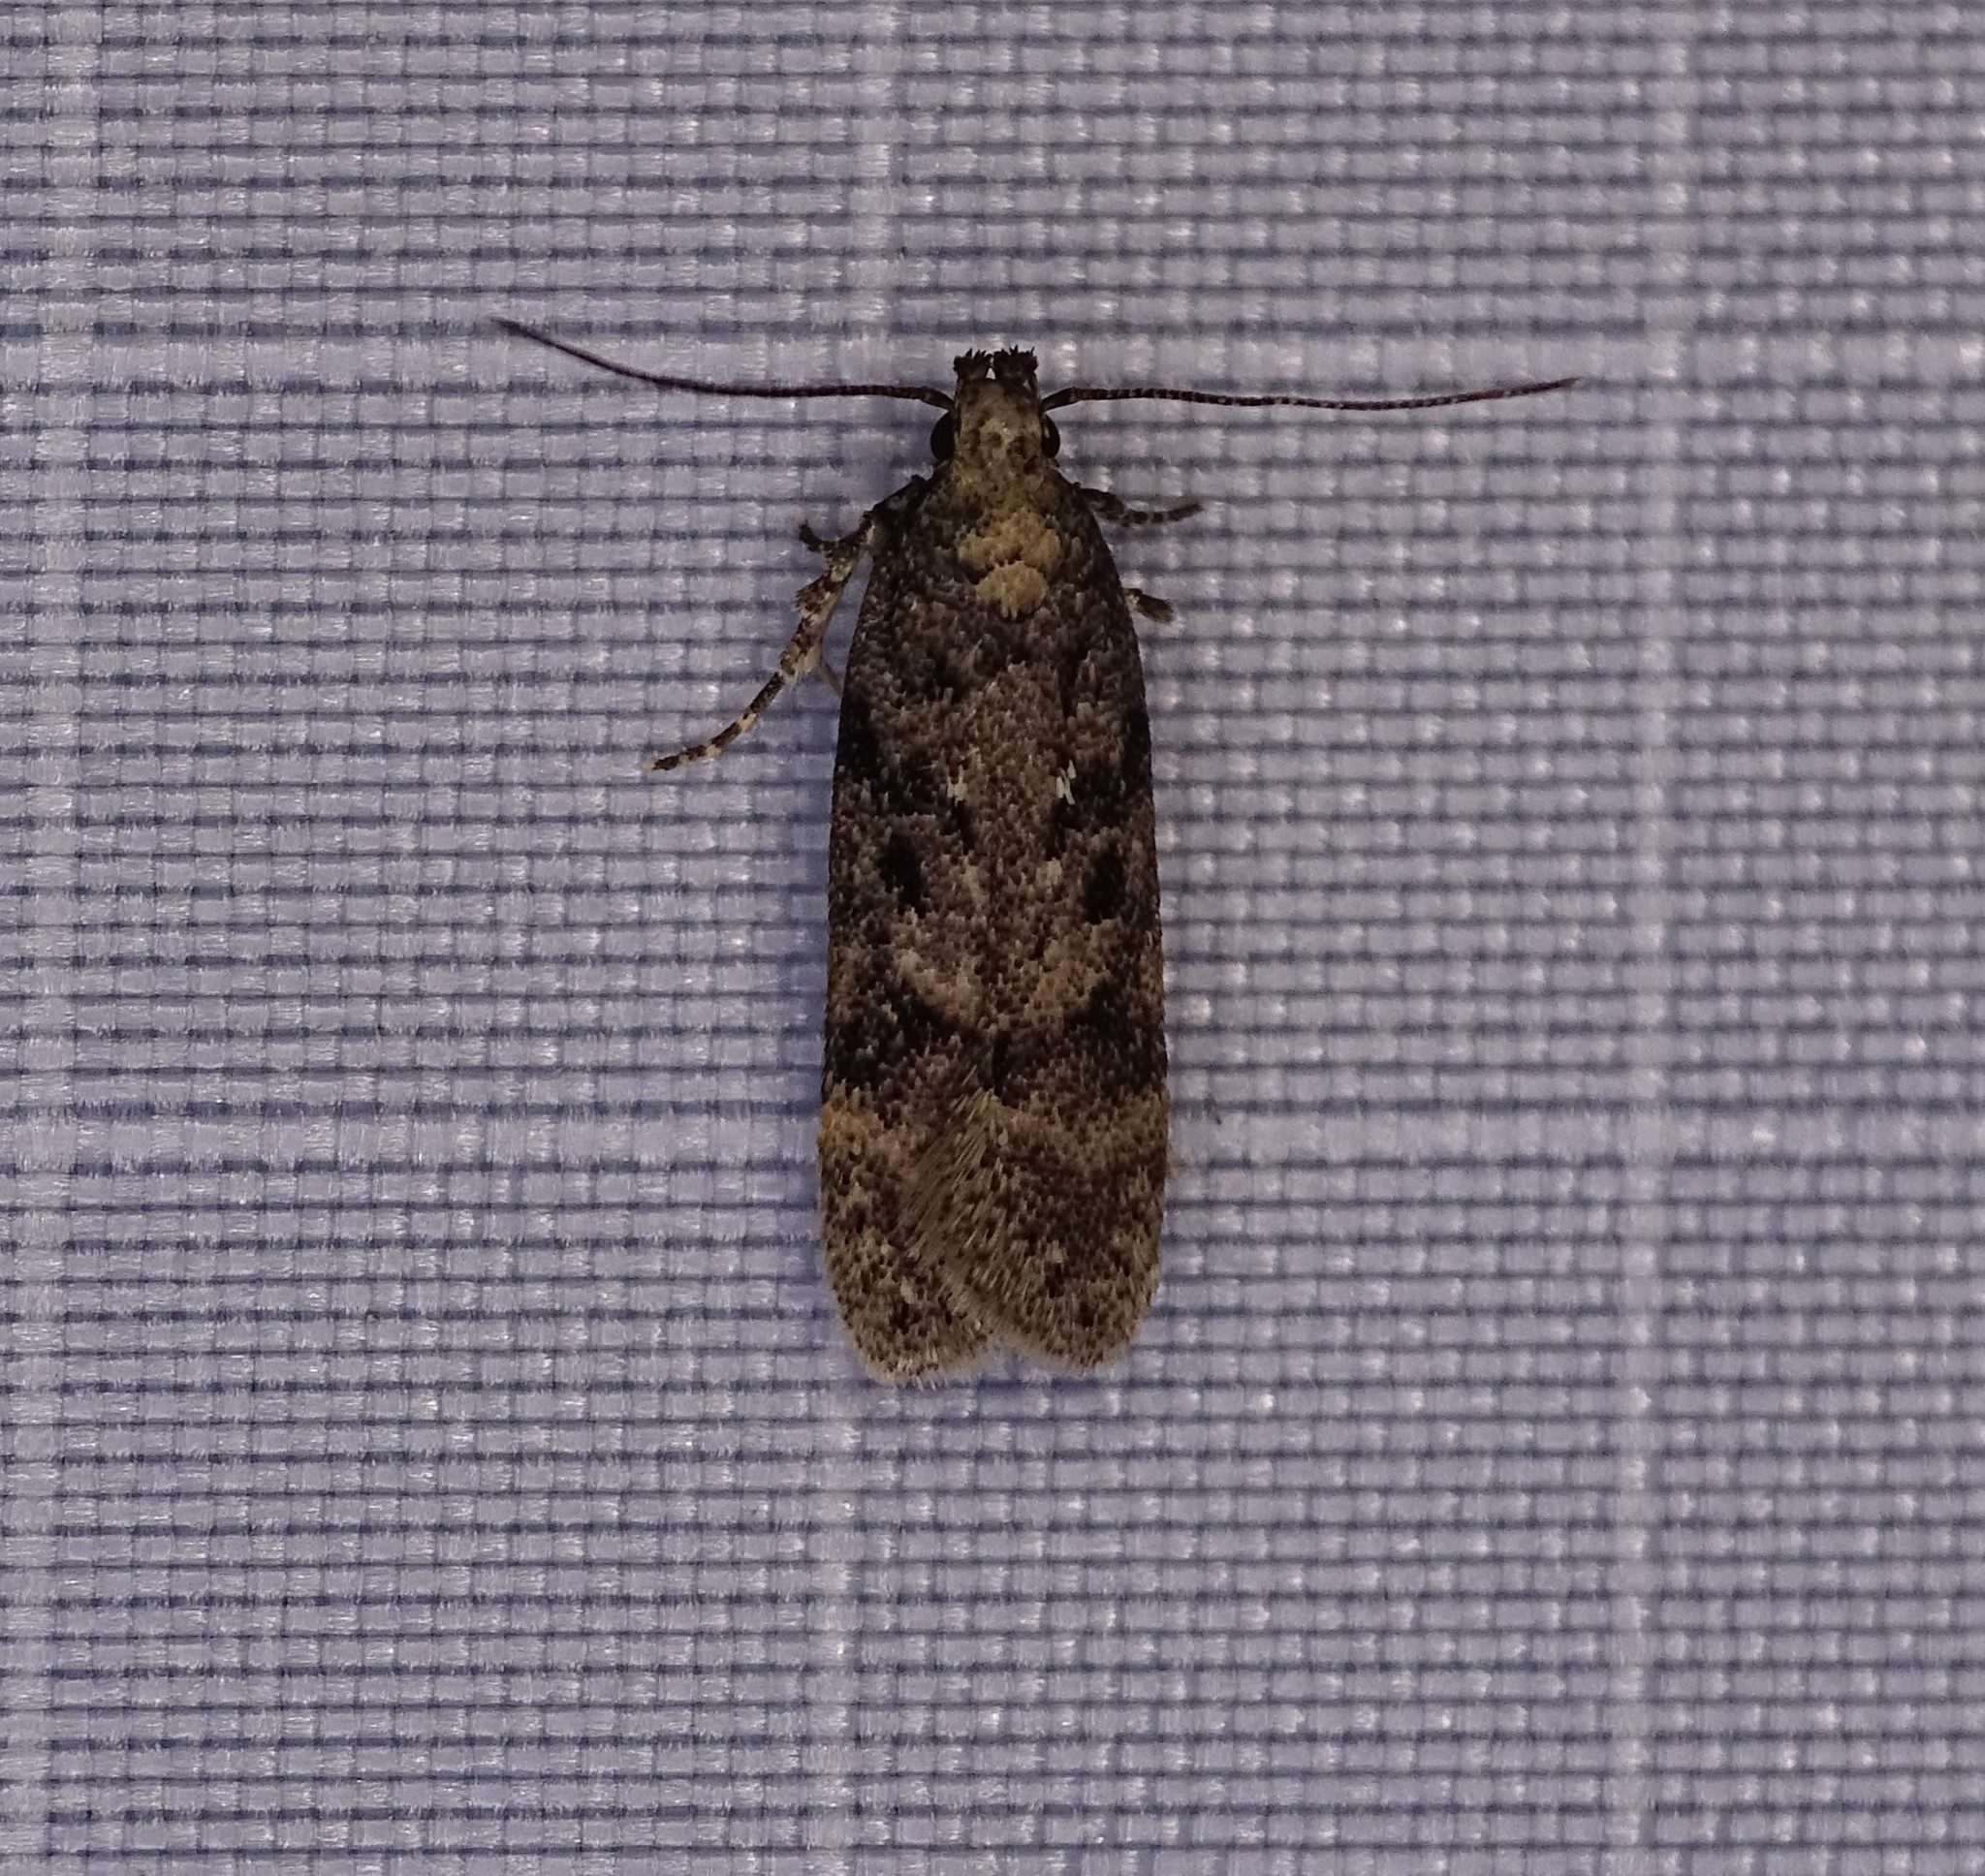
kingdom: Animalia
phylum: Arthropoda
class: Insecta
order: Lepidoptera
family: Gelechiidae
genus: Chionodes
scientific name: Chionodes thoraceochrella
